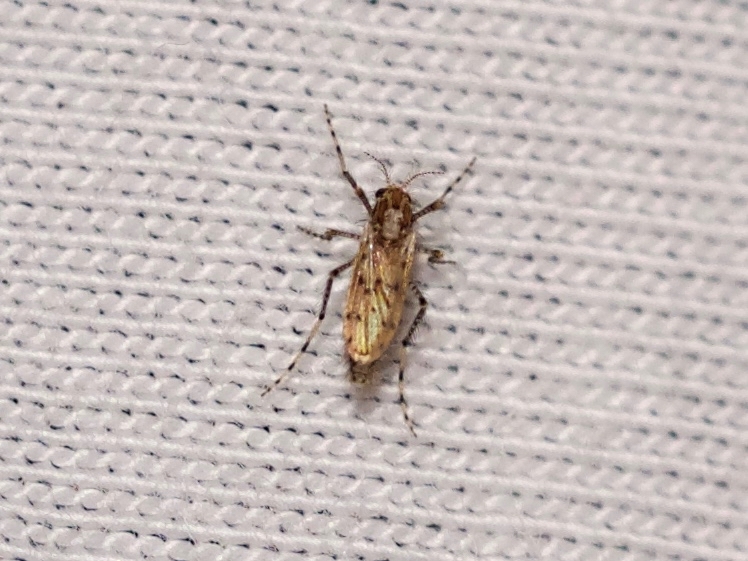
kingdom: Animalia
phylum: Arthropoda
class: Insecta
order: Diptera
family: Chaoboridae
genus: Chaoborus
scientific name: Chaoborus punctipennis
